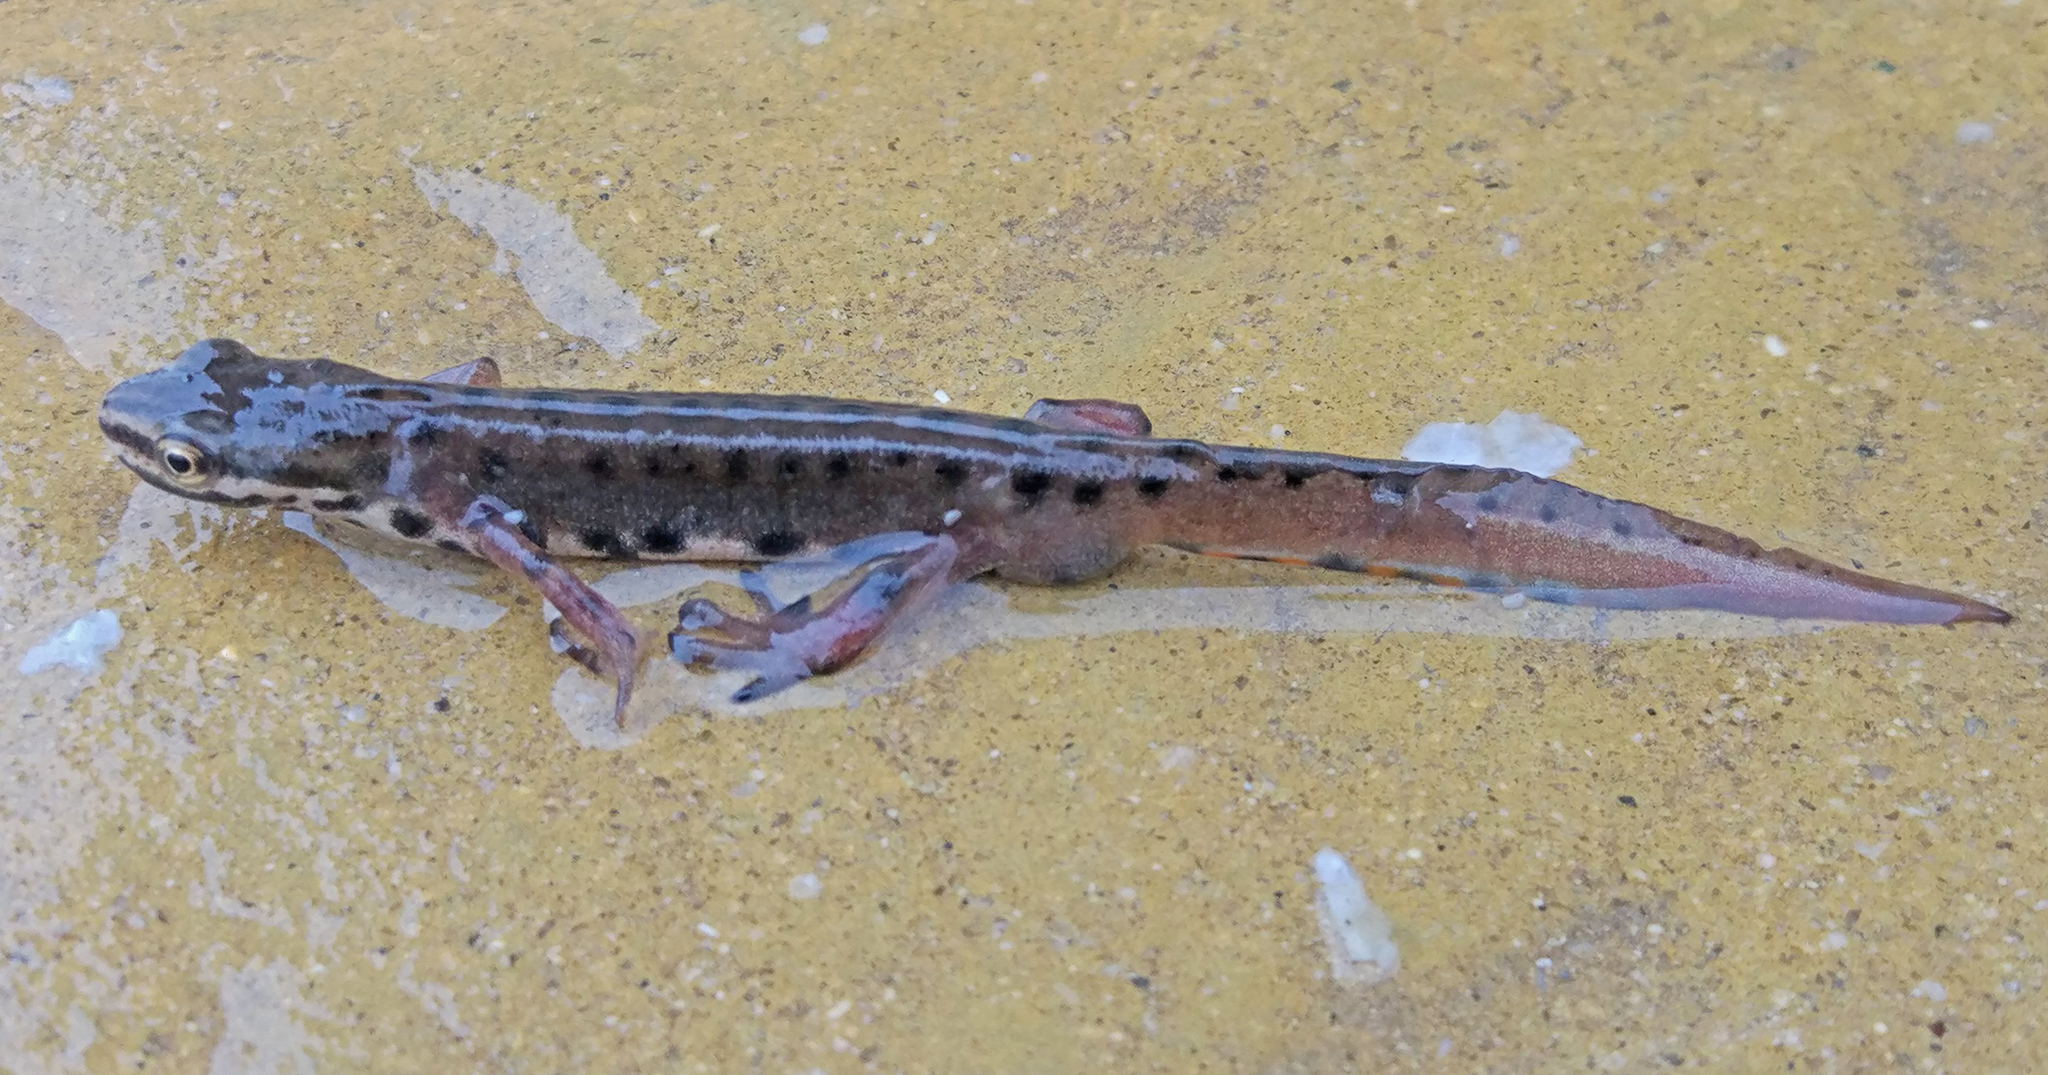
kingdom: Animalia
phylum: Chordata
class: Amphibia
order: Caudata
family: Salamandridae
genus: Lissotriton
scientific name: Lissotriton schmidtleri
